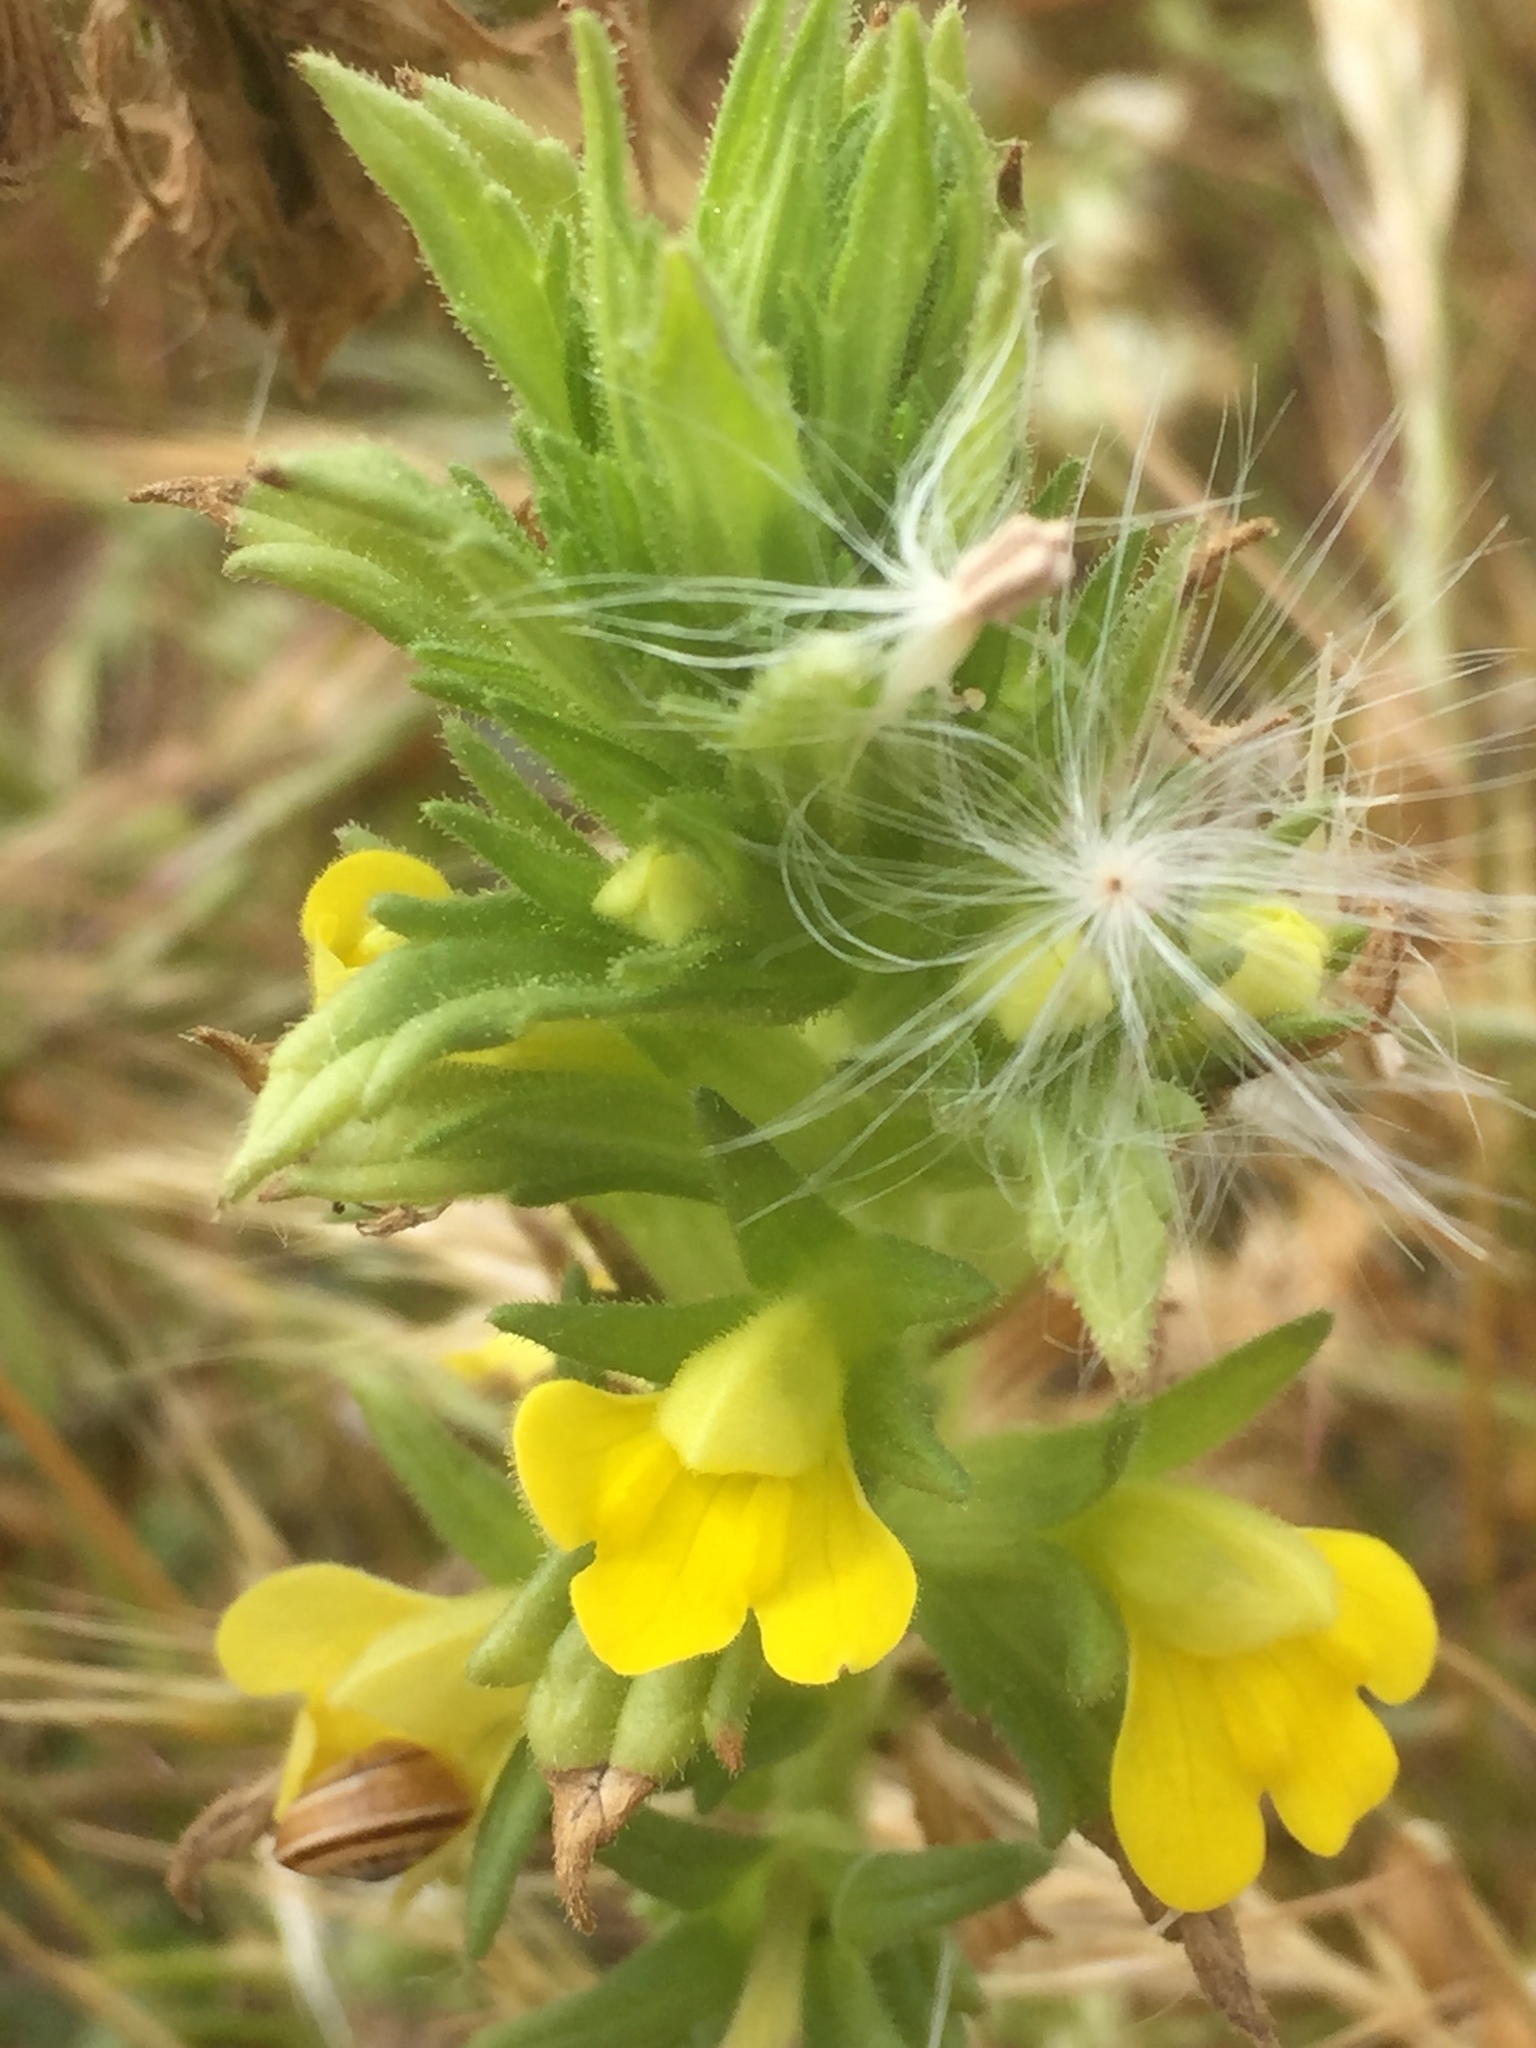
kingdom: Plantae
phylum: Tracheophyta
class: Magnoliopsida
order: Lamiales
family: Orobanchaceae
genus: Bellardia
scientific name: Bellardia viscosa
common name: Sticky parentucellia
